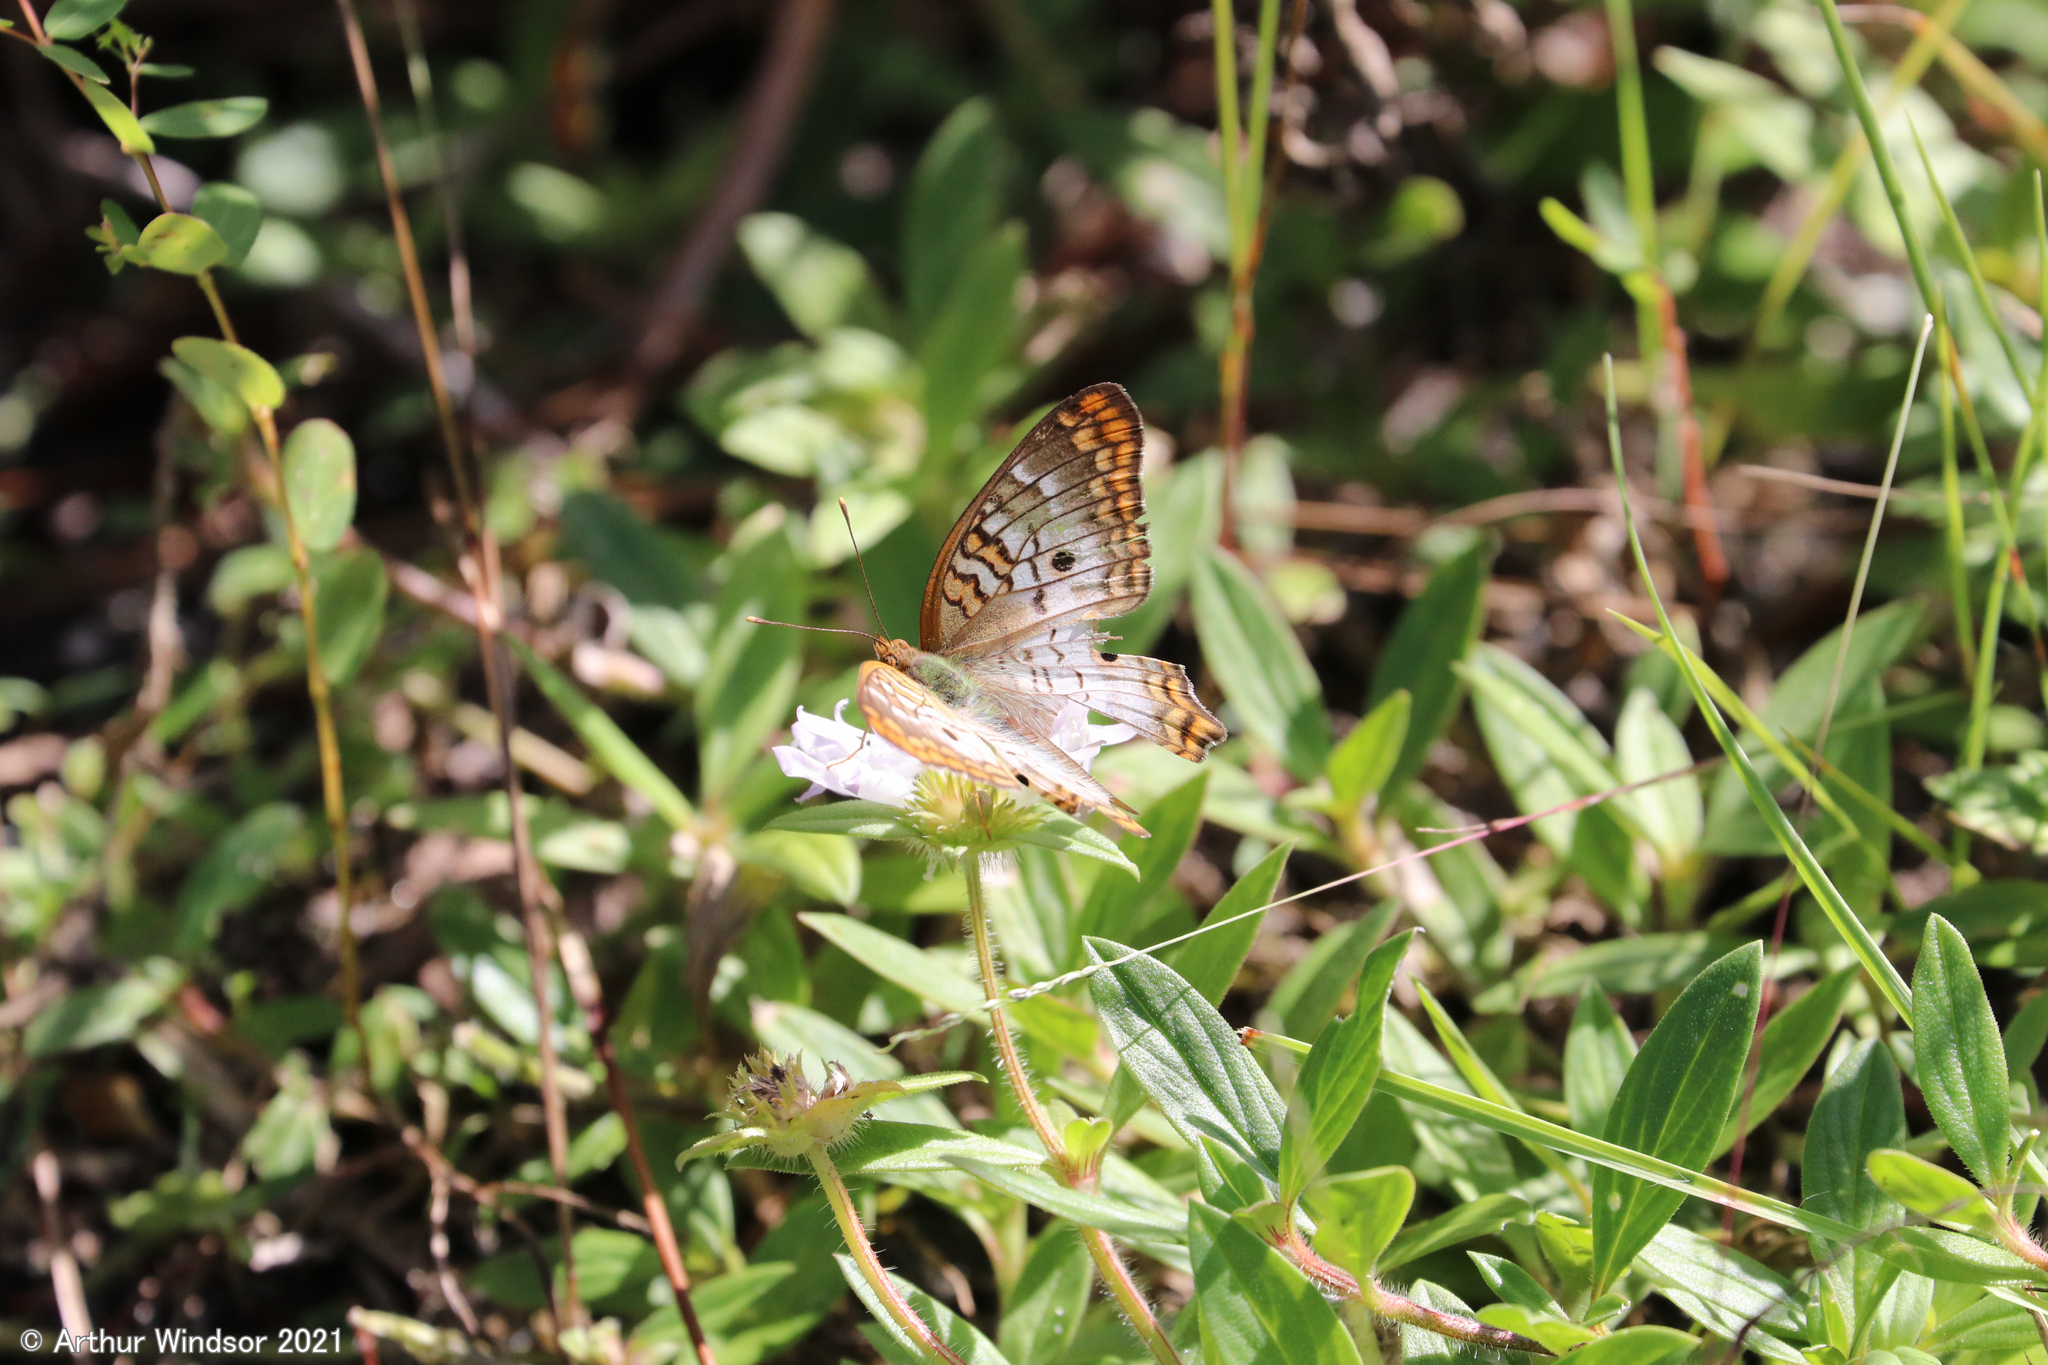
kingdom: Animalia
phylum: Arthropoda
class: Insecta
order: Lepidoptera
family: Nymphalidae
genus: Anartia
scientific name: Anartia jatrophae
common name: White peacock
